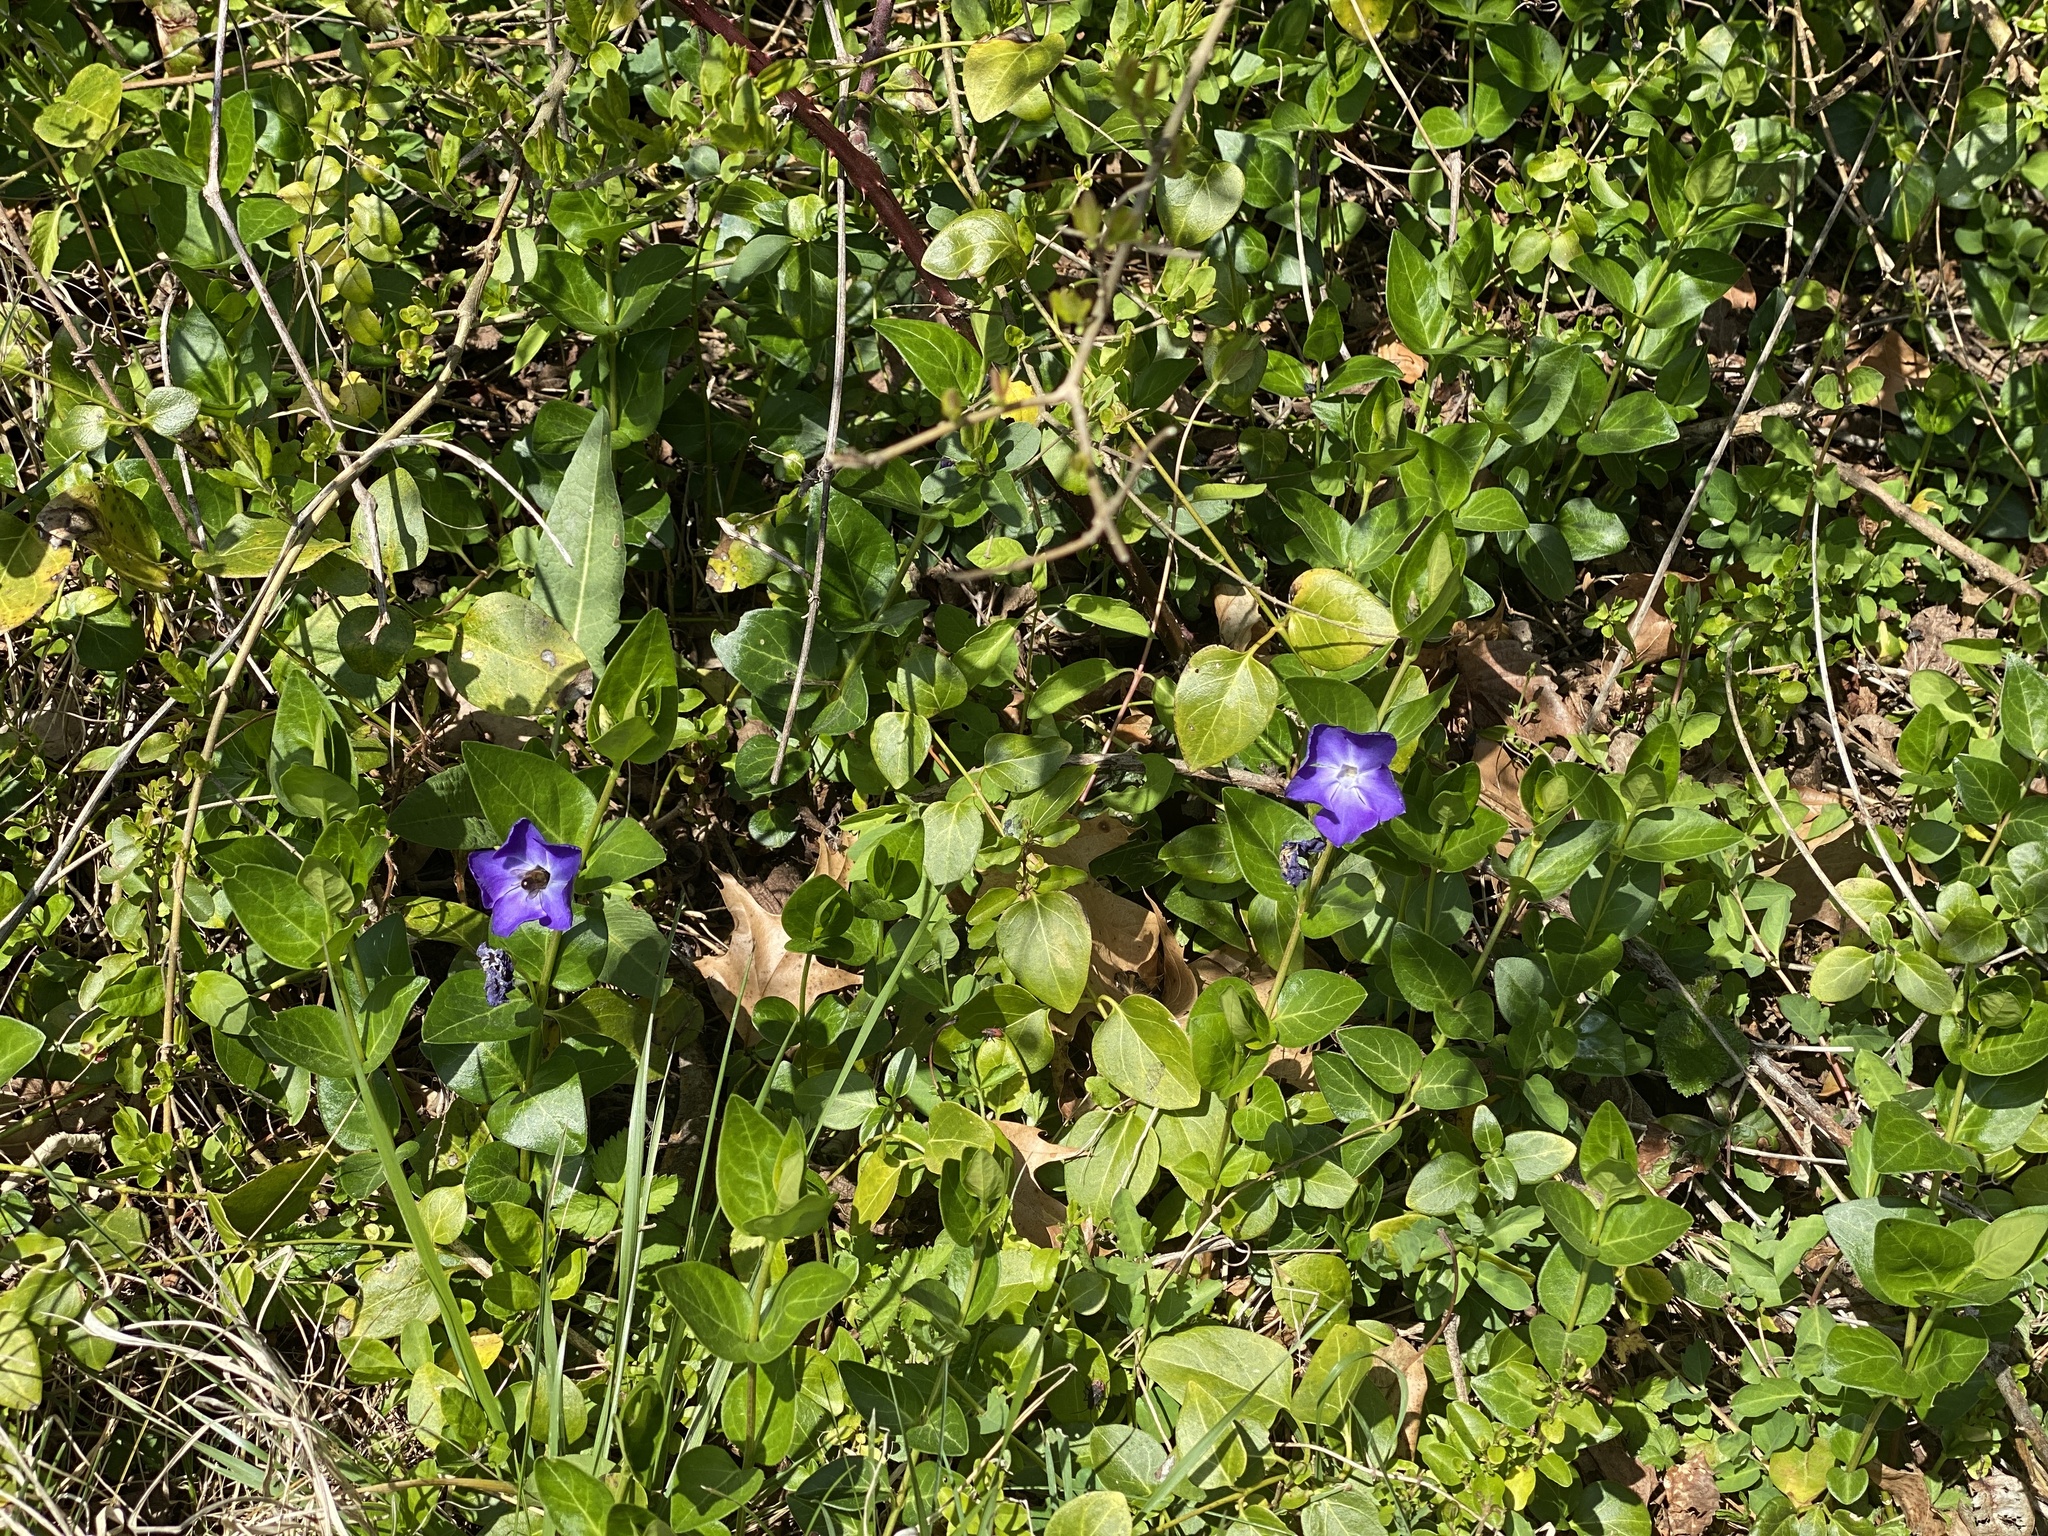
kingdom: Plantae
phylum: Tracheophyta
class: Magnoliopsida
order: Gentianales
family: Apocynaceae
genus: Vinca
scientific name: Vinca major
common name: Greater periwinkle
